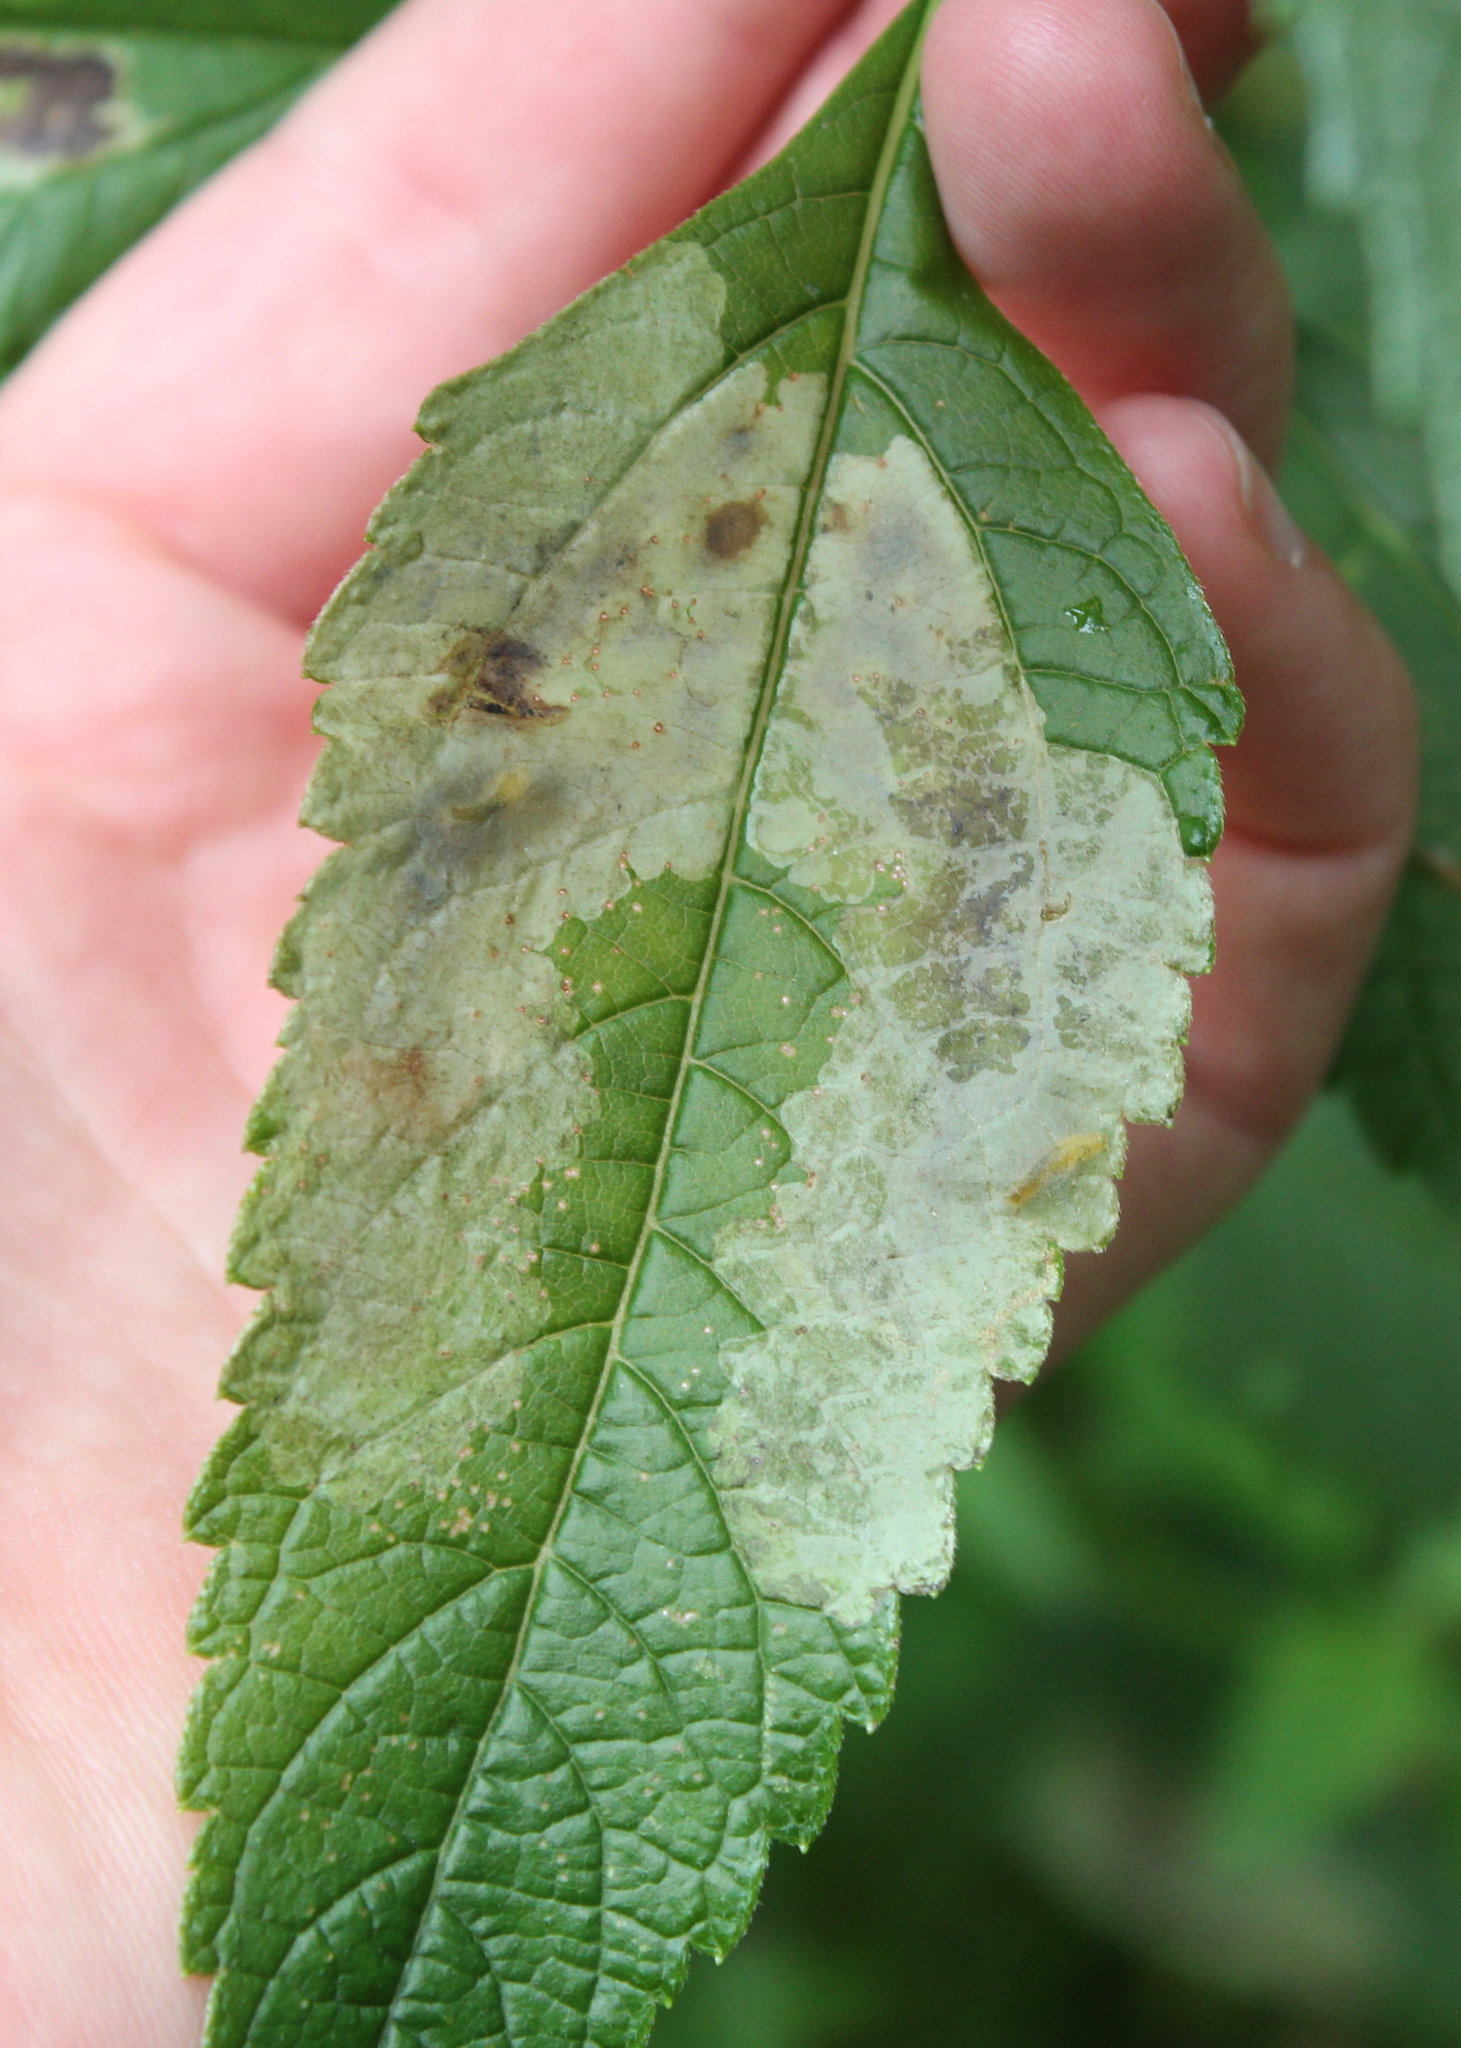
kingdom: Animalia
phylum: Arthropoda
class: Insecta
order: Diptera
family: Agromyzidae
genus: Calycomyza
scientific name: Calycomyza flavinotum
